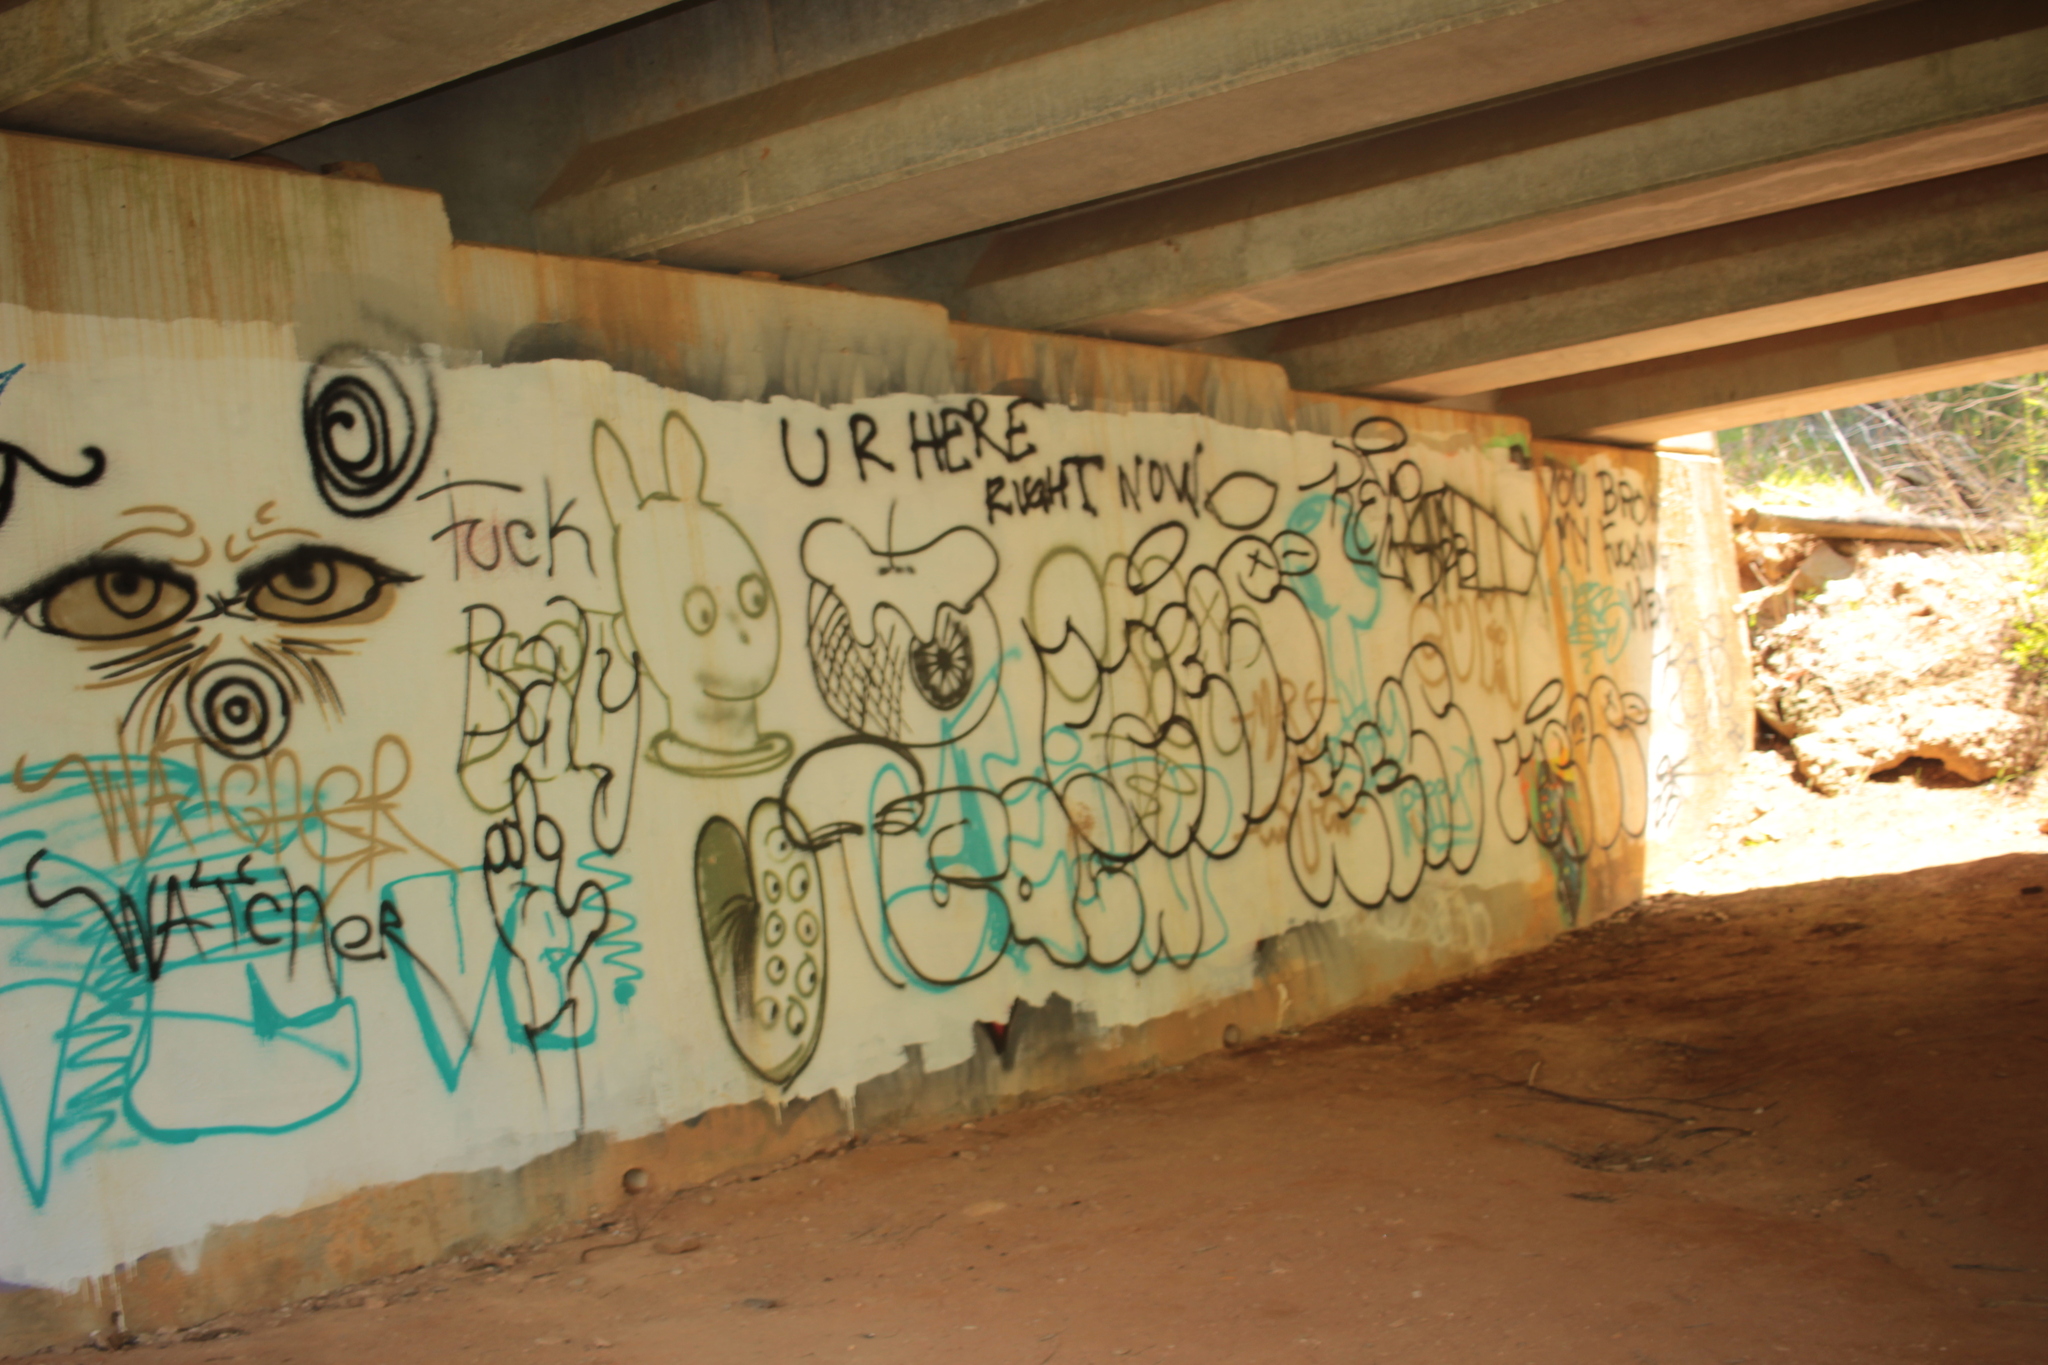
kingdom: Animalia
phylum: Chordata
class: Aves
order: Passeriformes
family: Hirundinidae
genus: Hirundo
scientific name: Hirundo rustica
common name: Barn swallow
